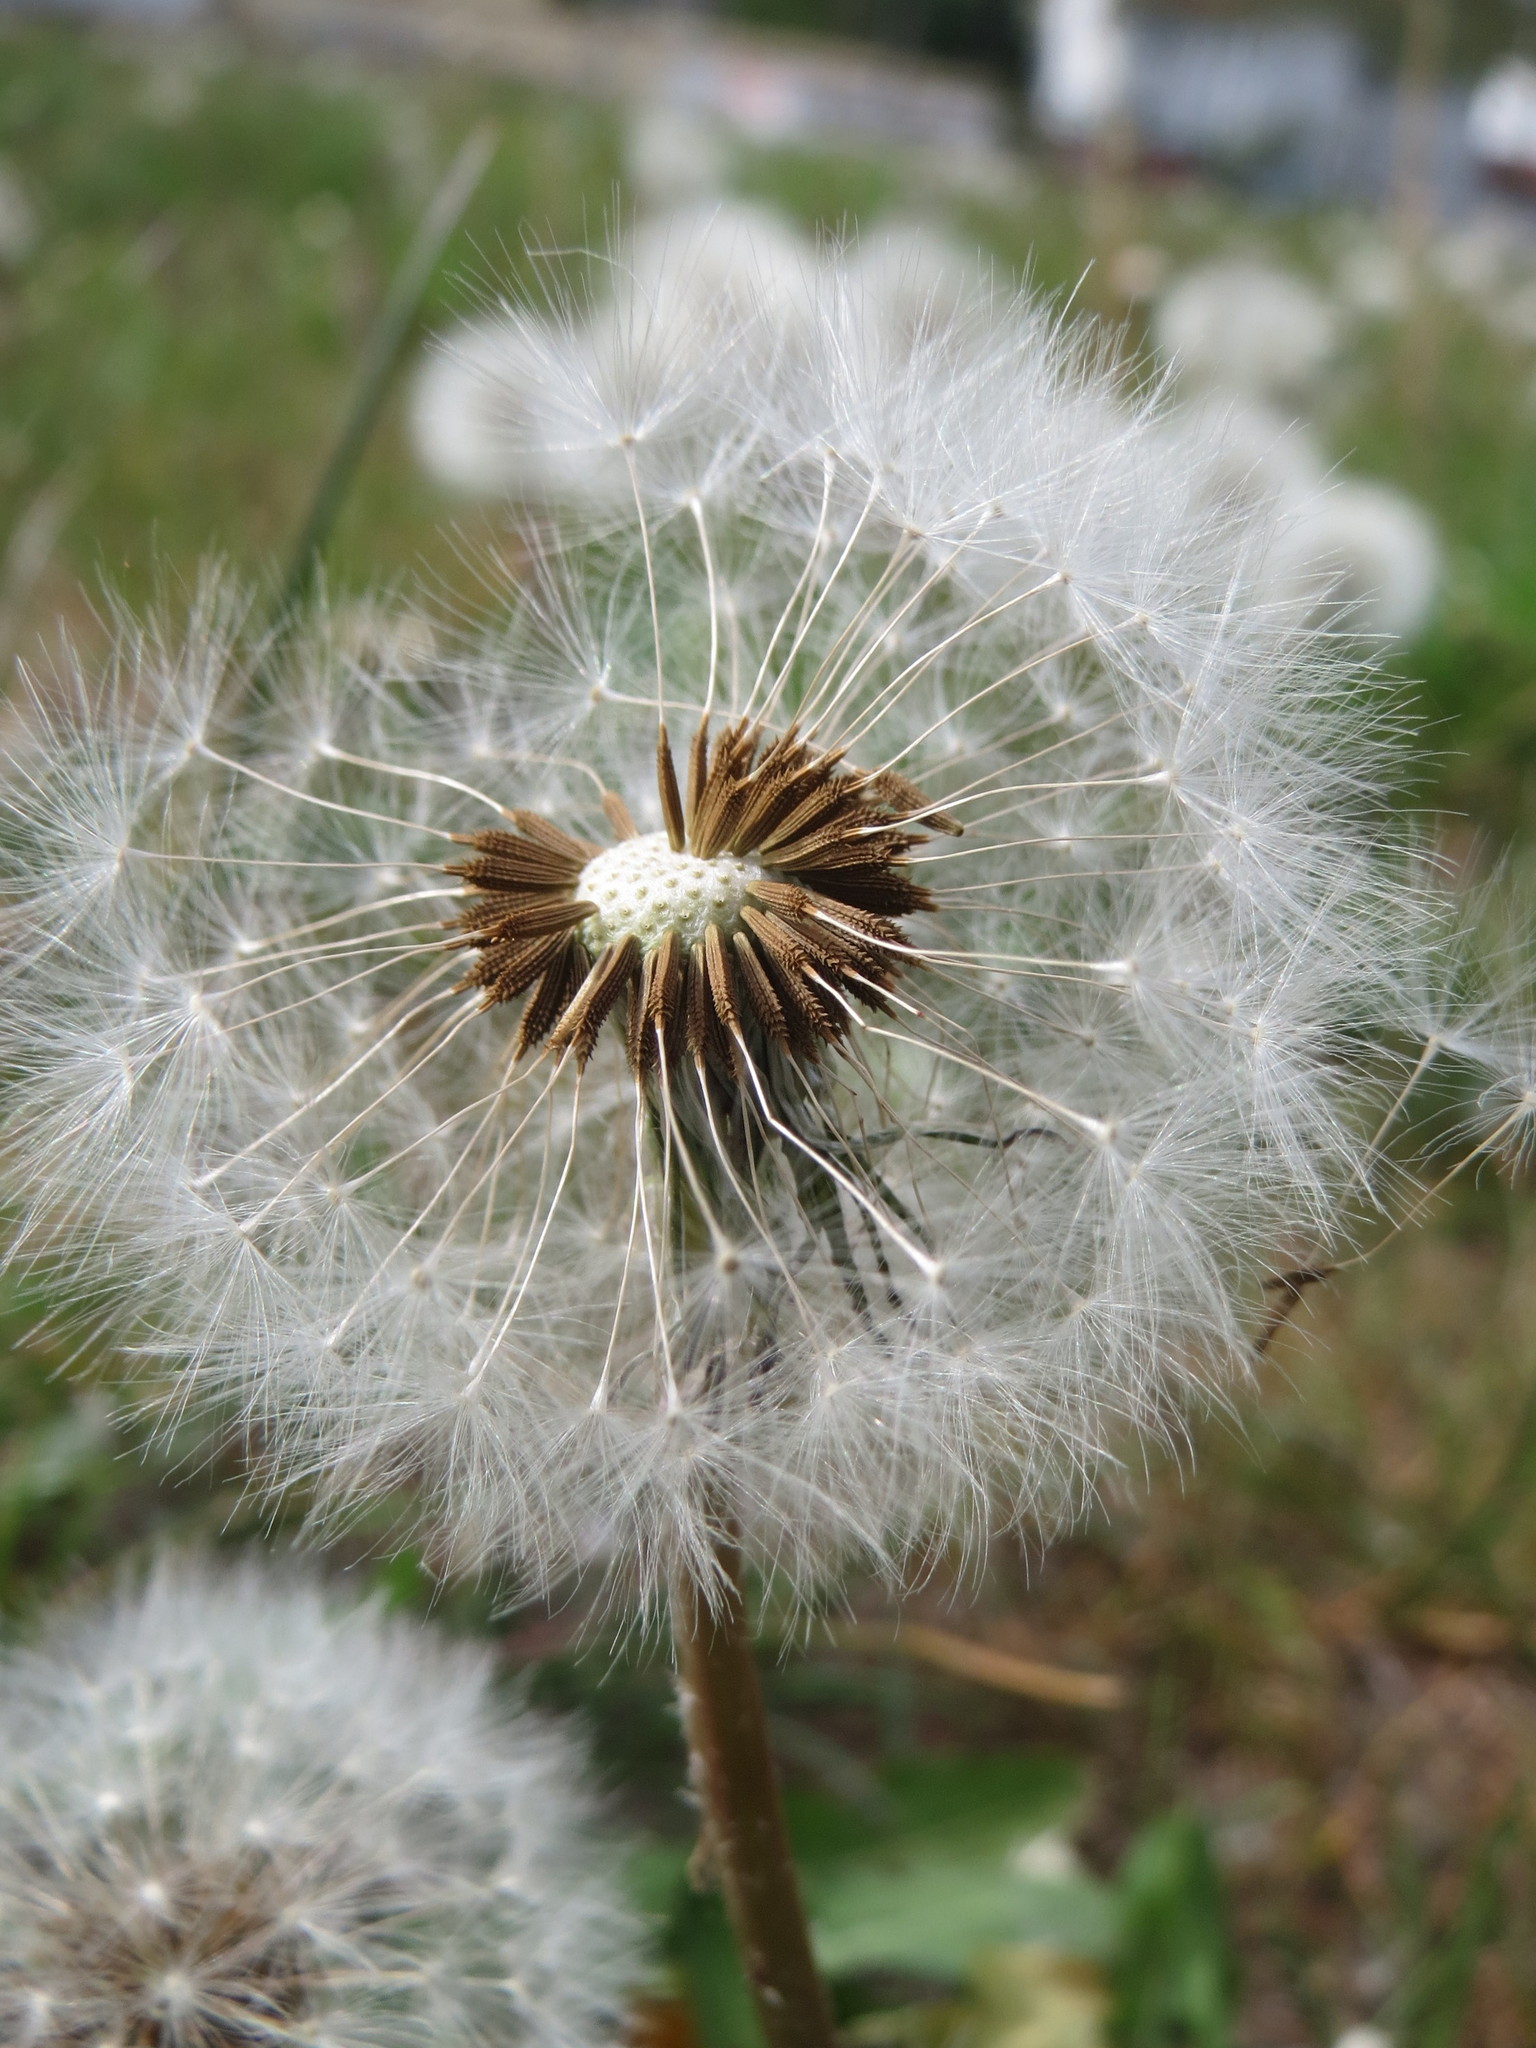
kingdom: Plantae
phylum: Tracheophyta
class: Magnoliopsida
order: Asterales
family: Asteraceae
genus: Taraxacum
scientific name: Taraxacum officinale
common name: Common dandelion
